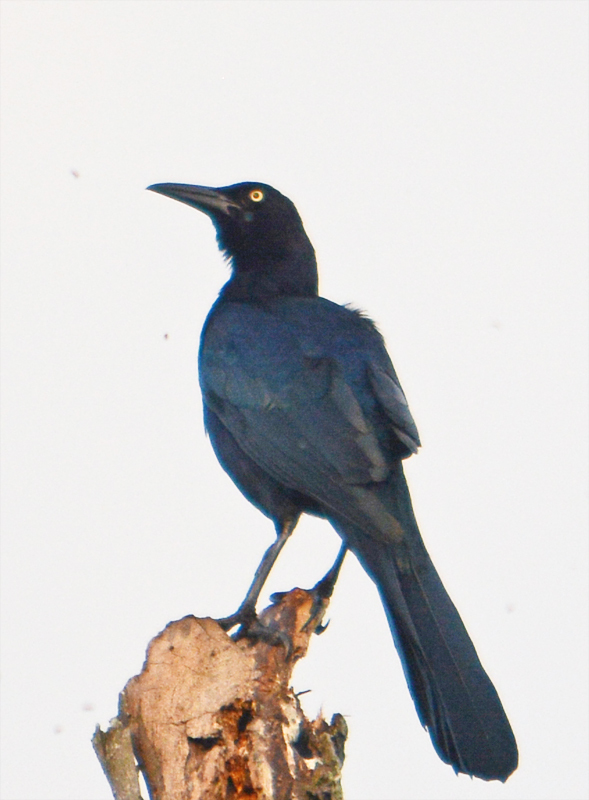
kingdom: Animalia
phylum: Chordata
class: Aves
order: Passeriformes
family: Icteridae
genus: Quiscalus
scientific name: Quiscalus mexicanus
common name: Great-tailed grackle
